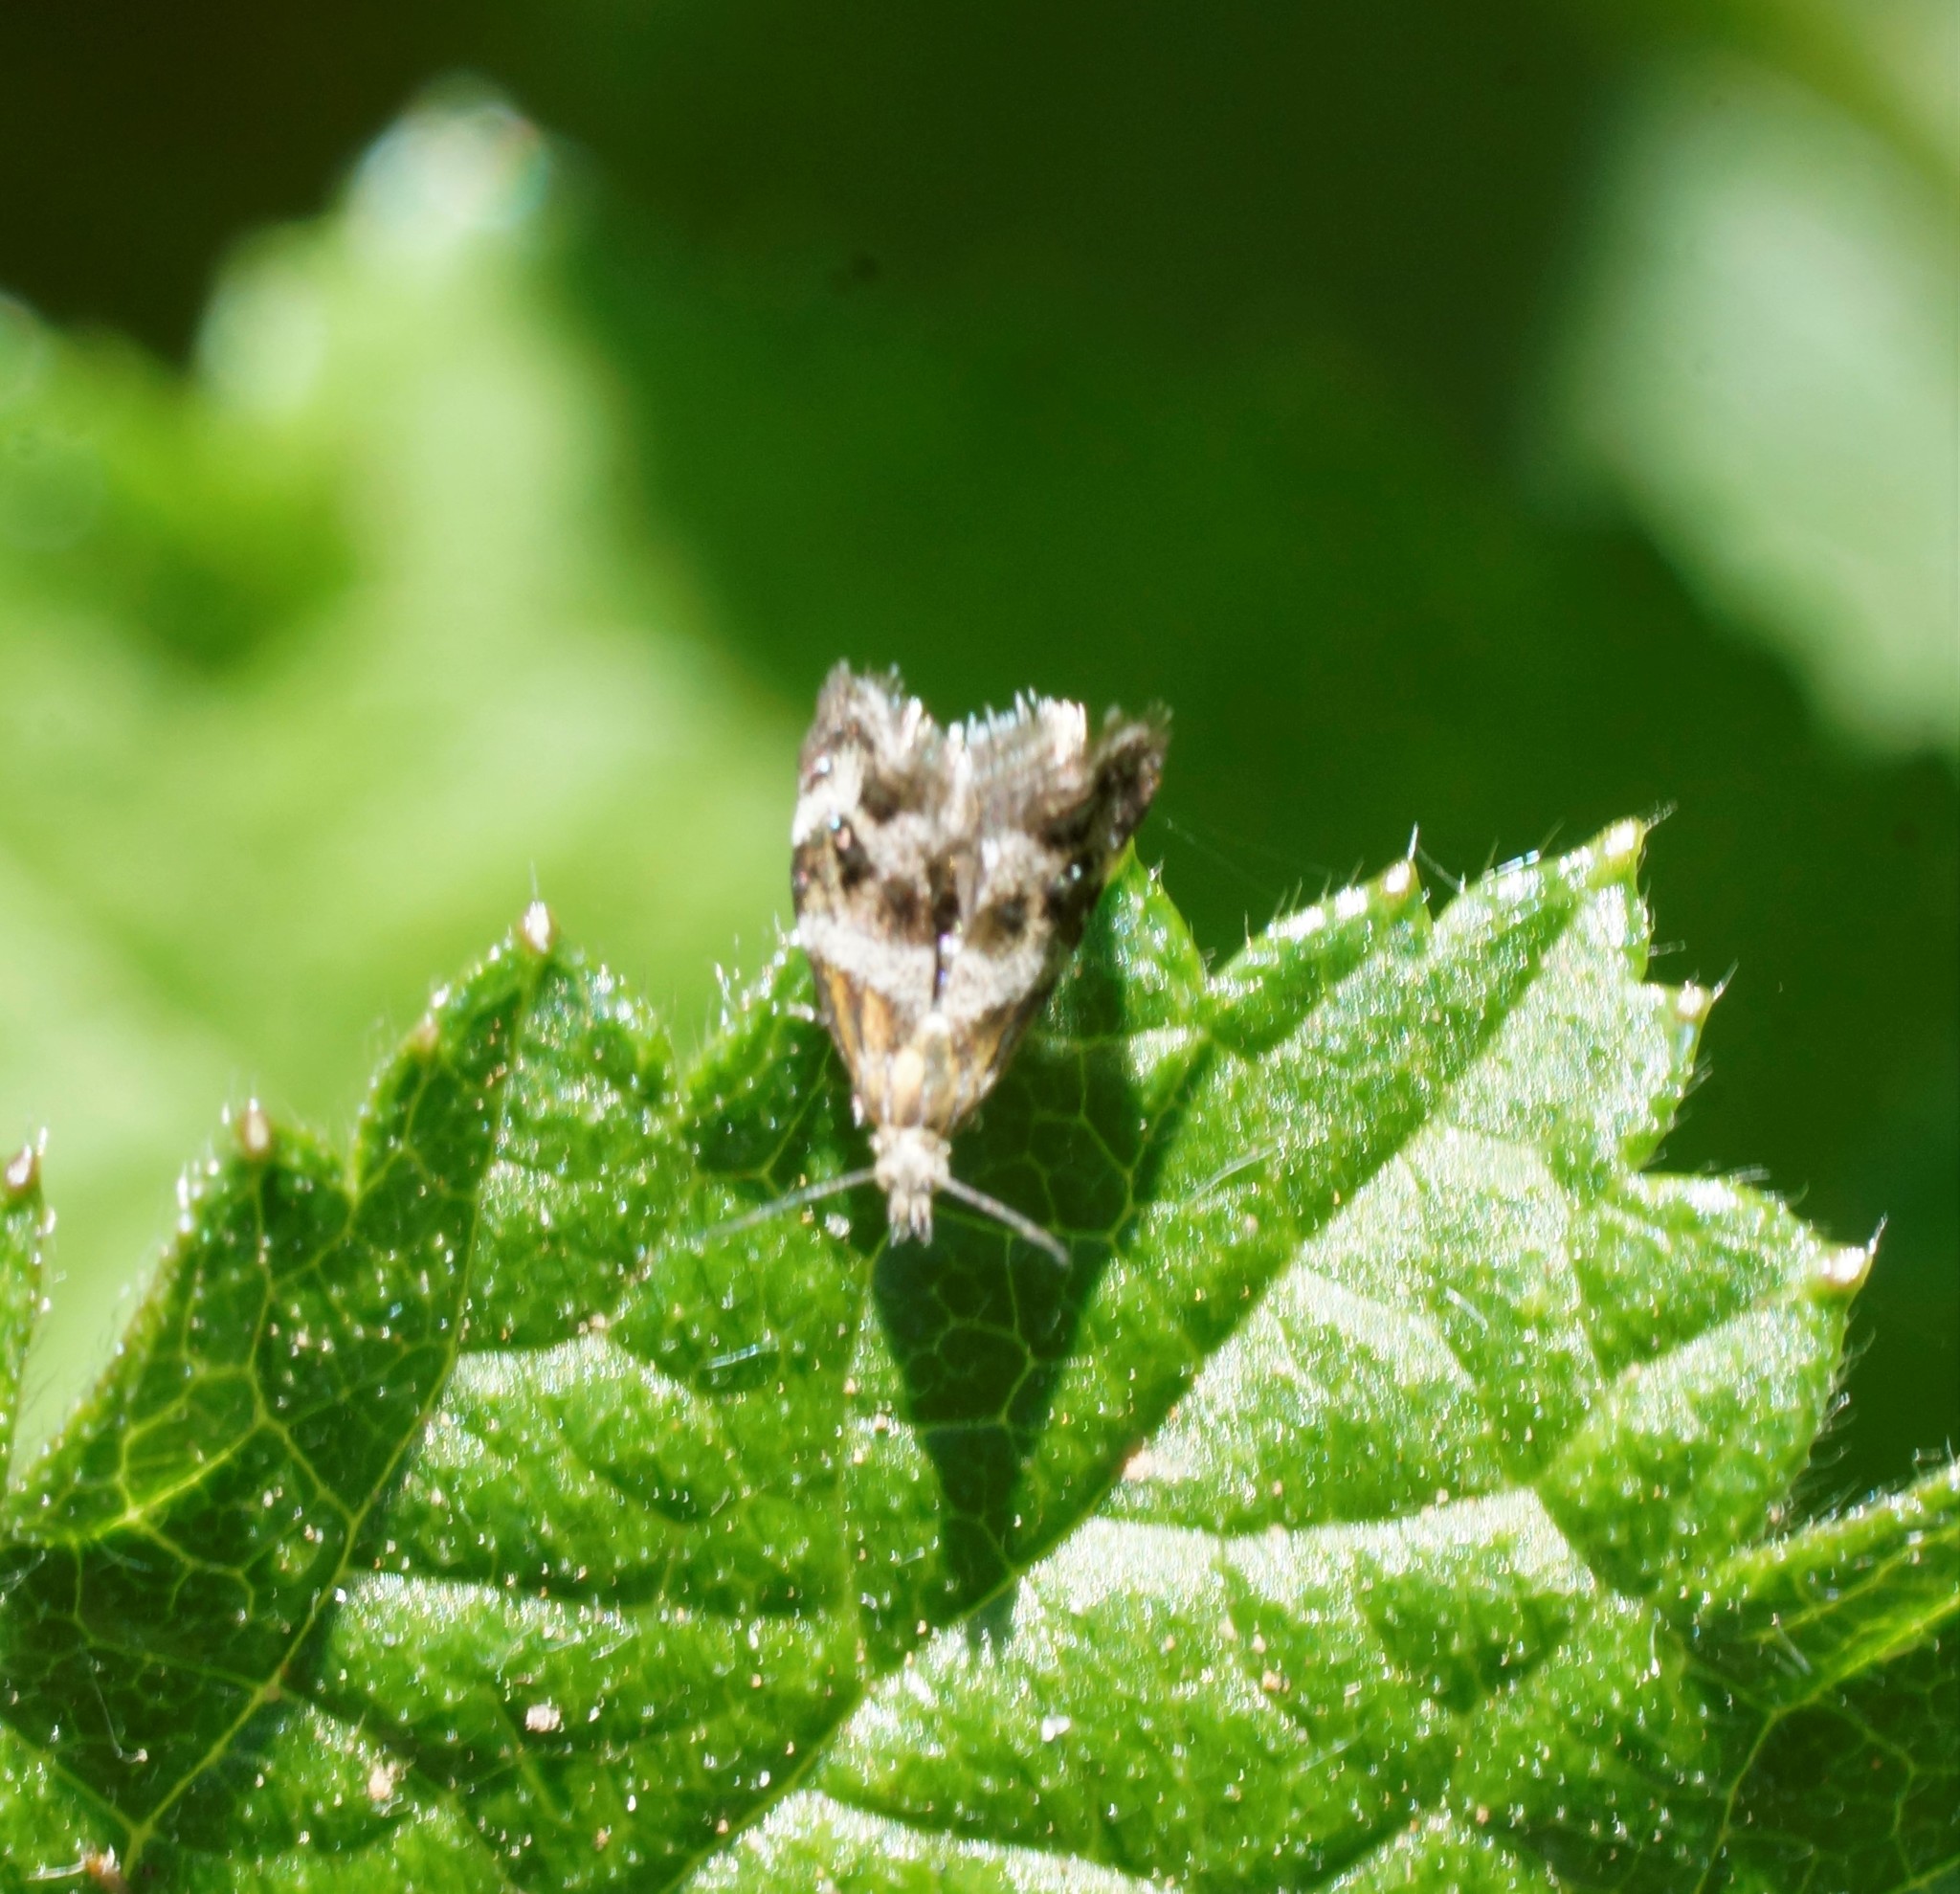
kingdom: Animalia
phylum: Arthropoda
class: Insecta
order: Lepidoptera
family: Choreutidae
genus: Tebenna
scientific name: Tebenna micalis
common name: Vagrant twitcher
